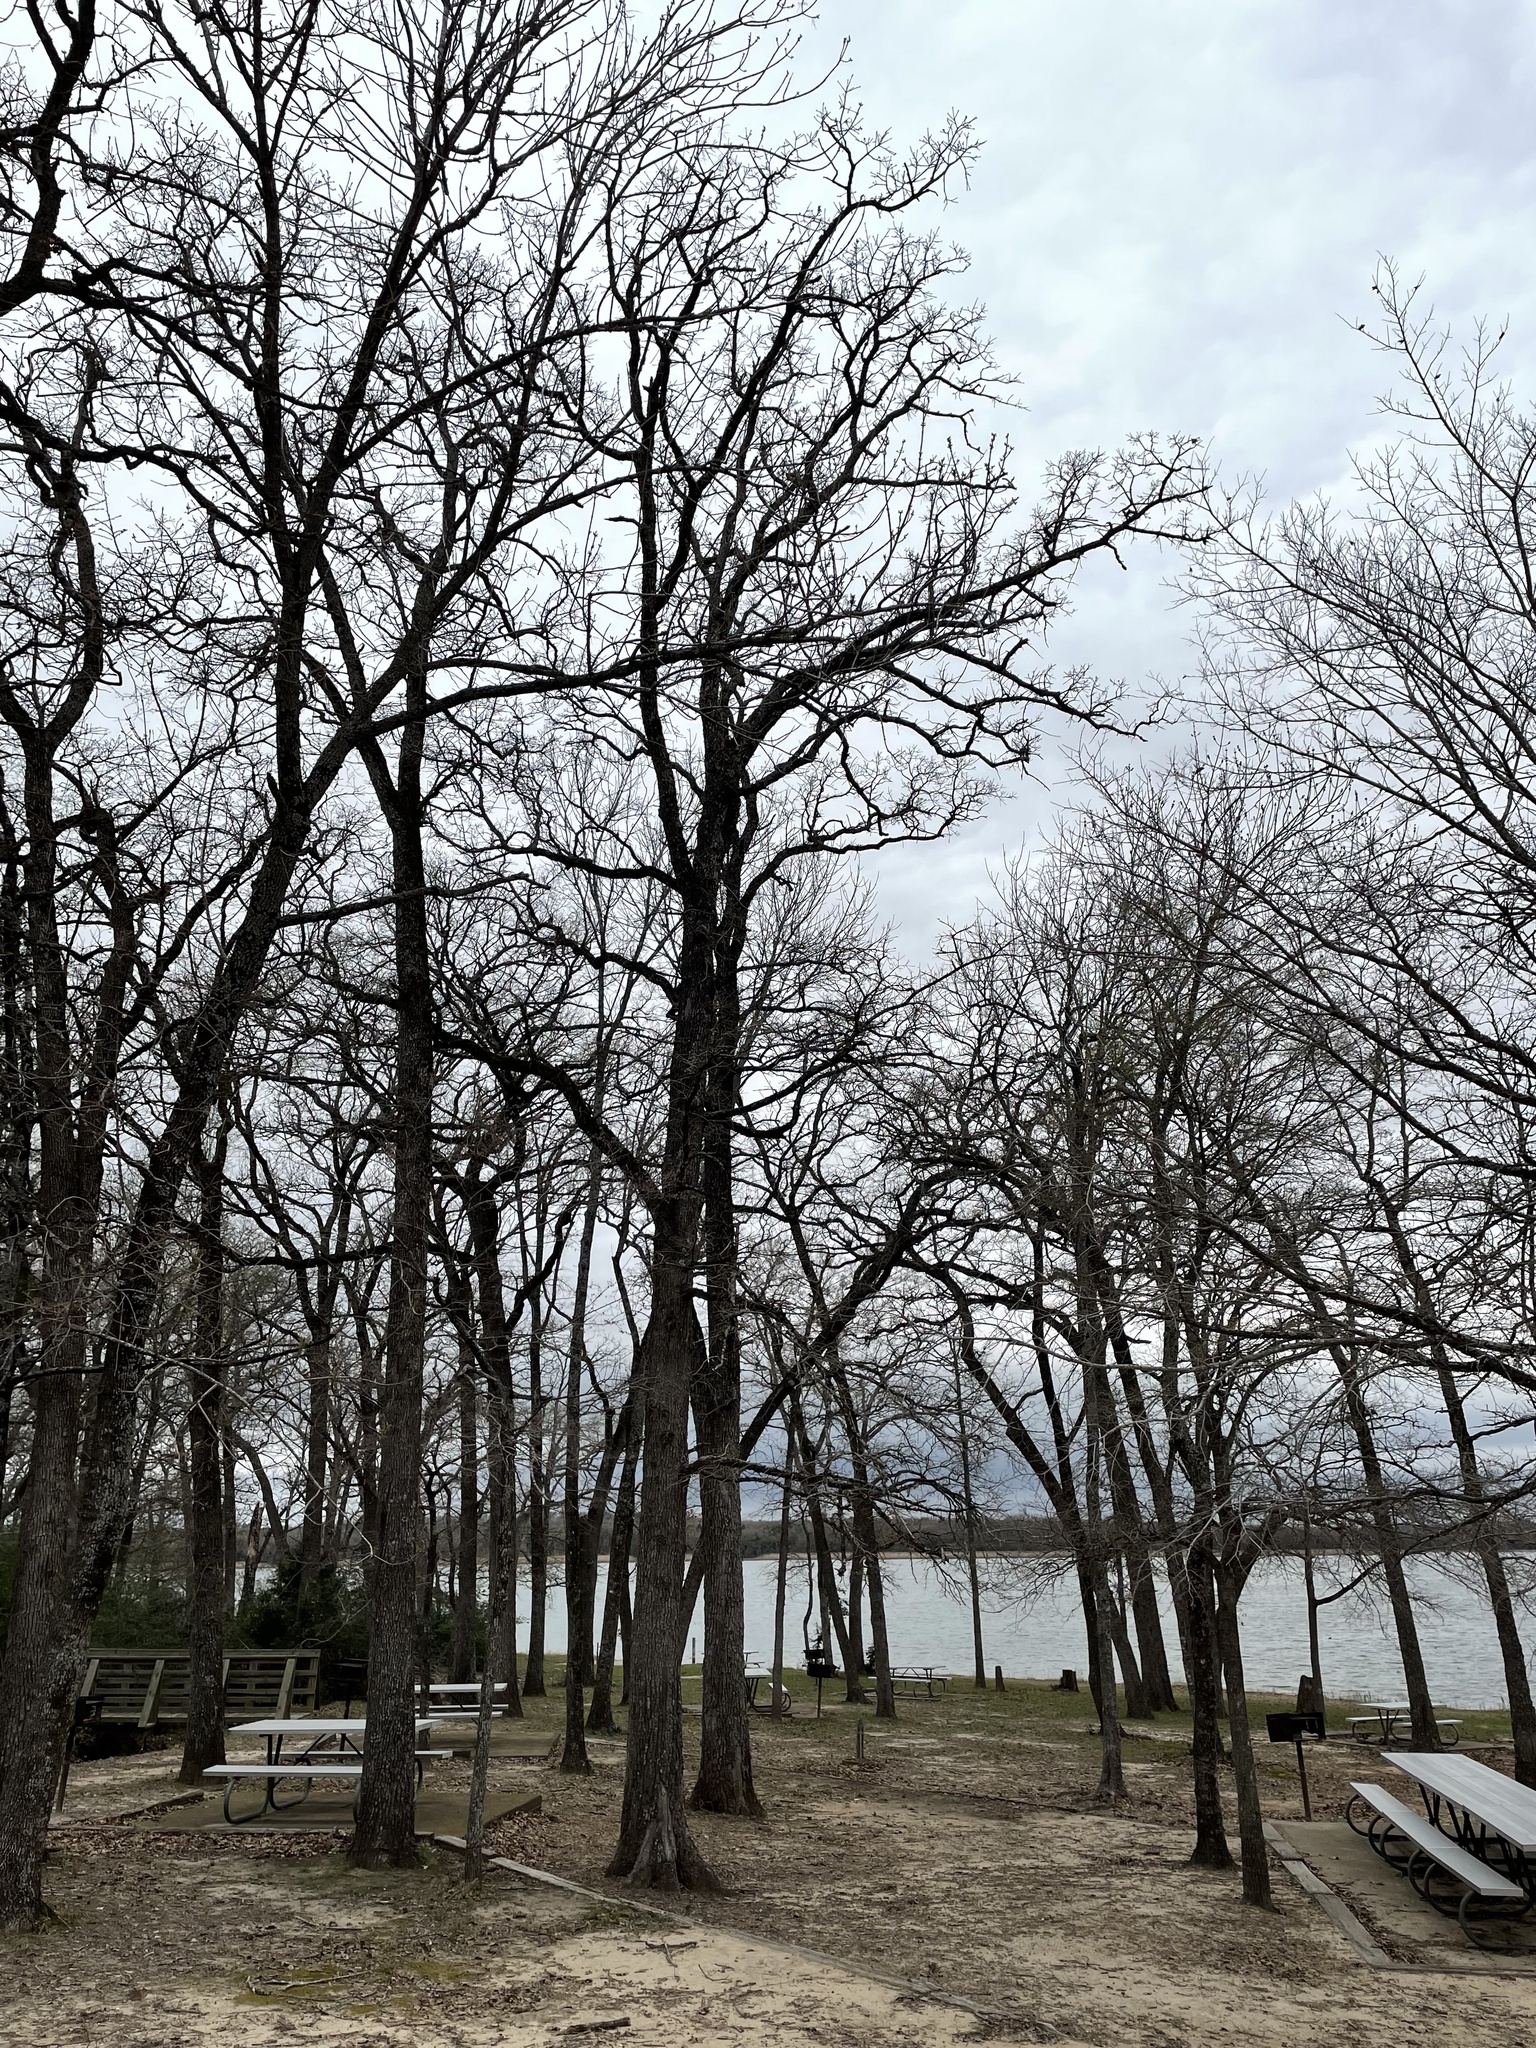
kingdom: Plantae
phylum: Tracheophyta
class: Magnoliopsida
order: Fagales
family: Fagaceae
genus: Quercus
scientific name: Quercus stellata
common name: Post oak
